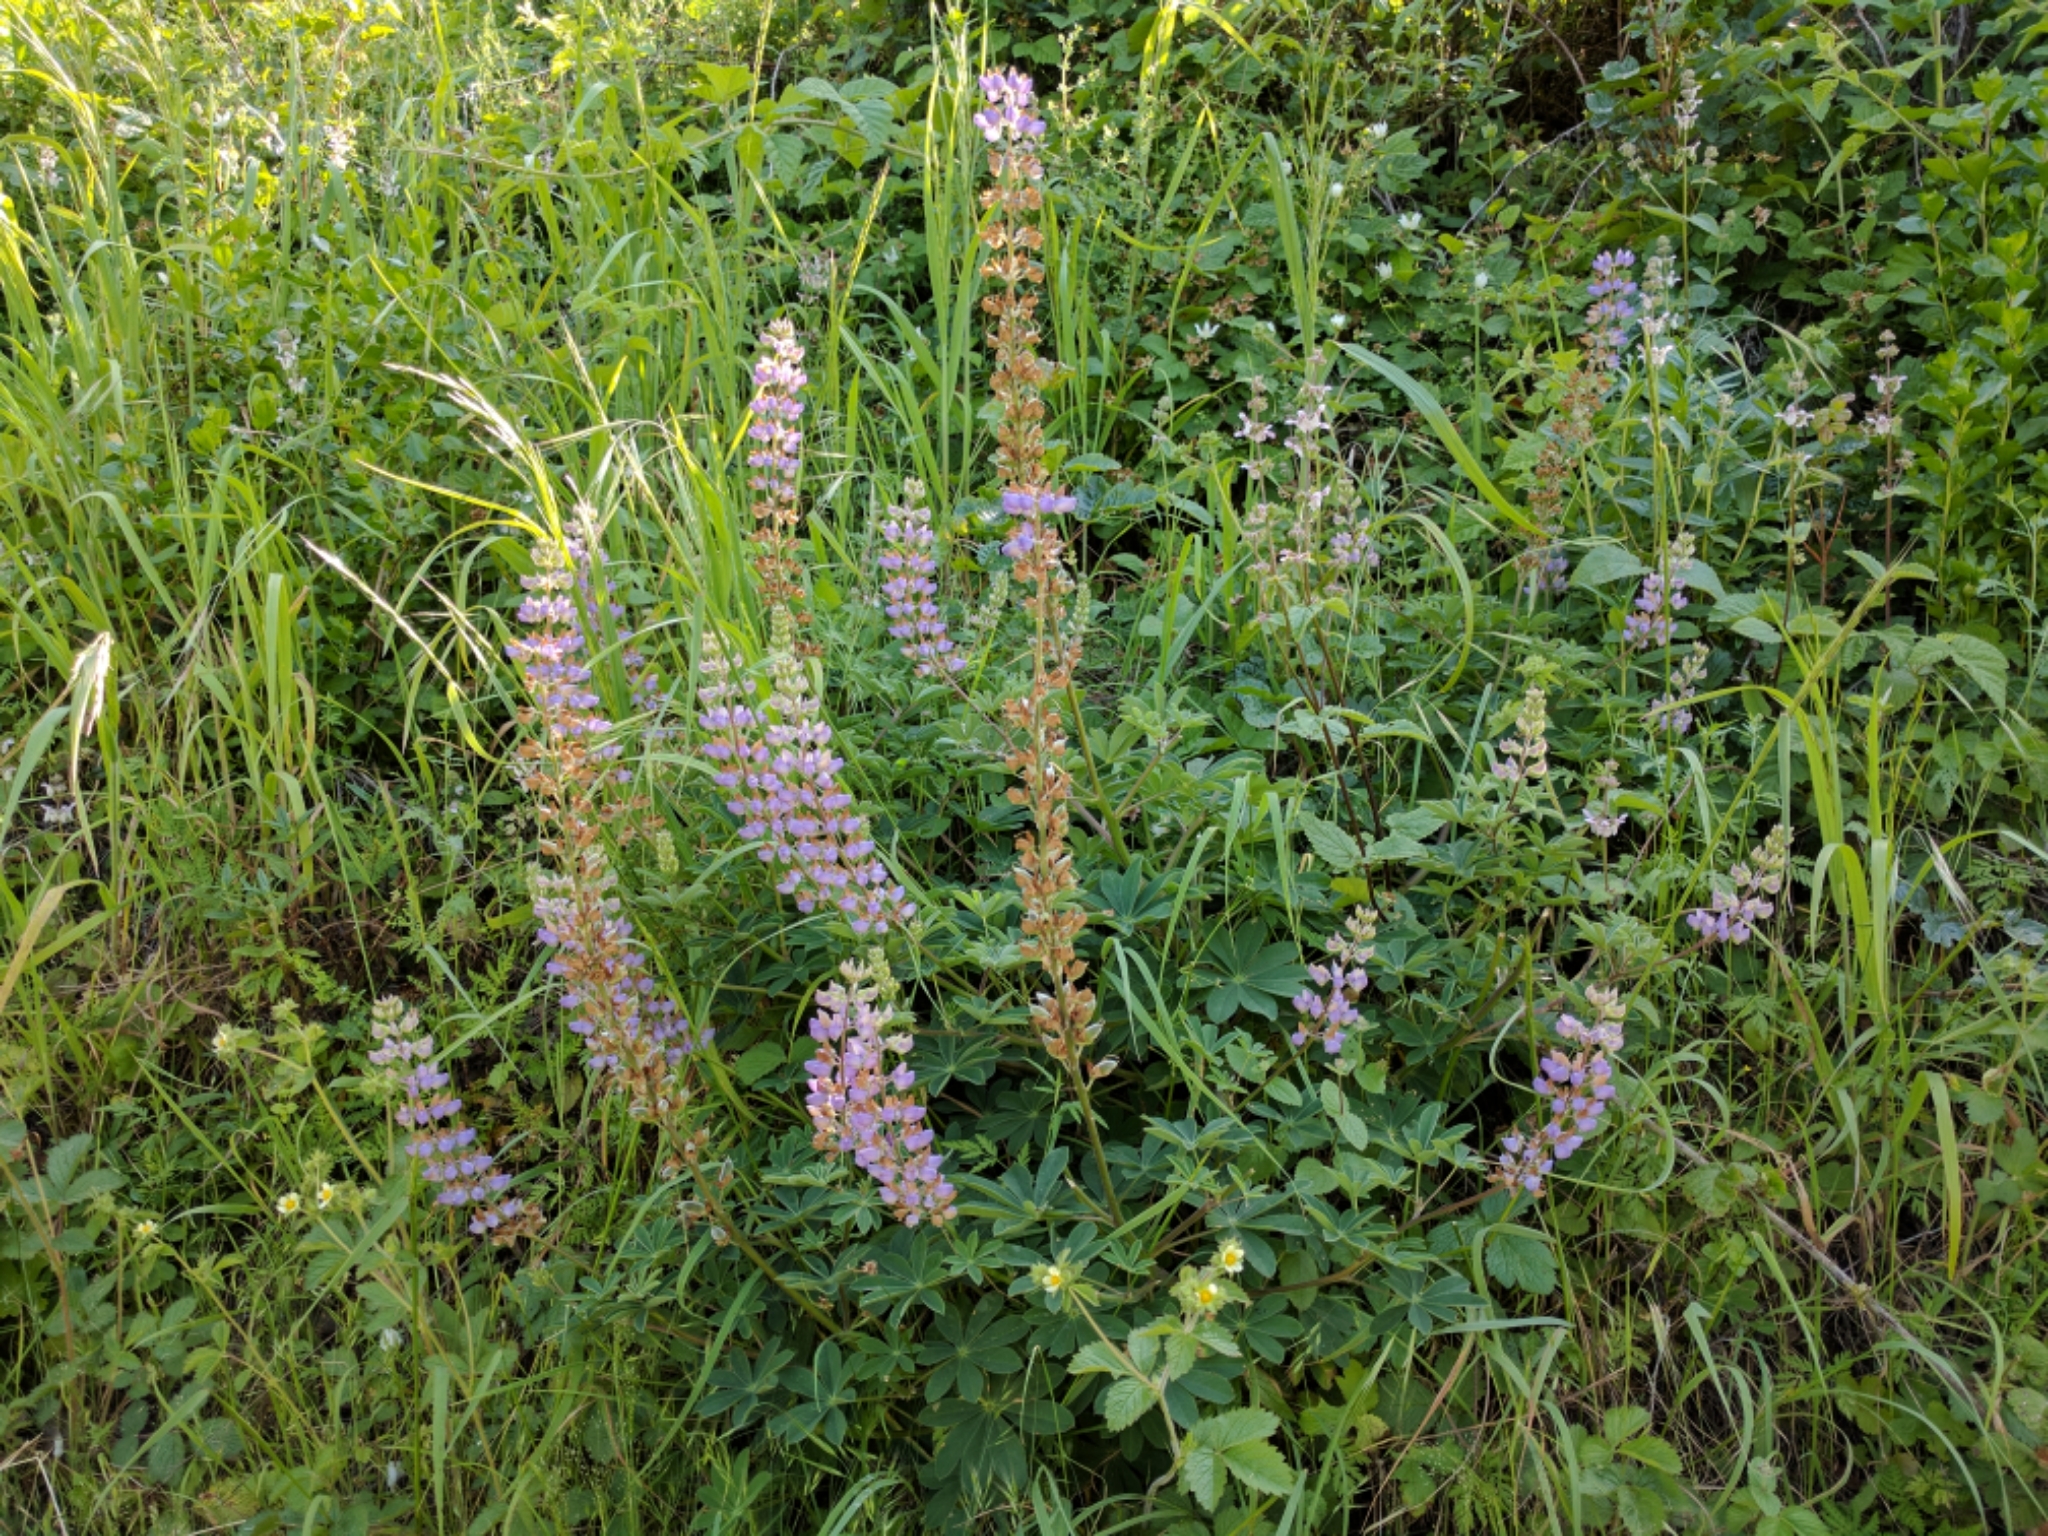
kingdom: Plantae
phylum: Tracheophyta
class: Magnoliopsida
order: Fabales
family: Fabaceae
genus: Lupinus
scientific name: Lupinus latifolius
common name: Broad-leaved lupine
